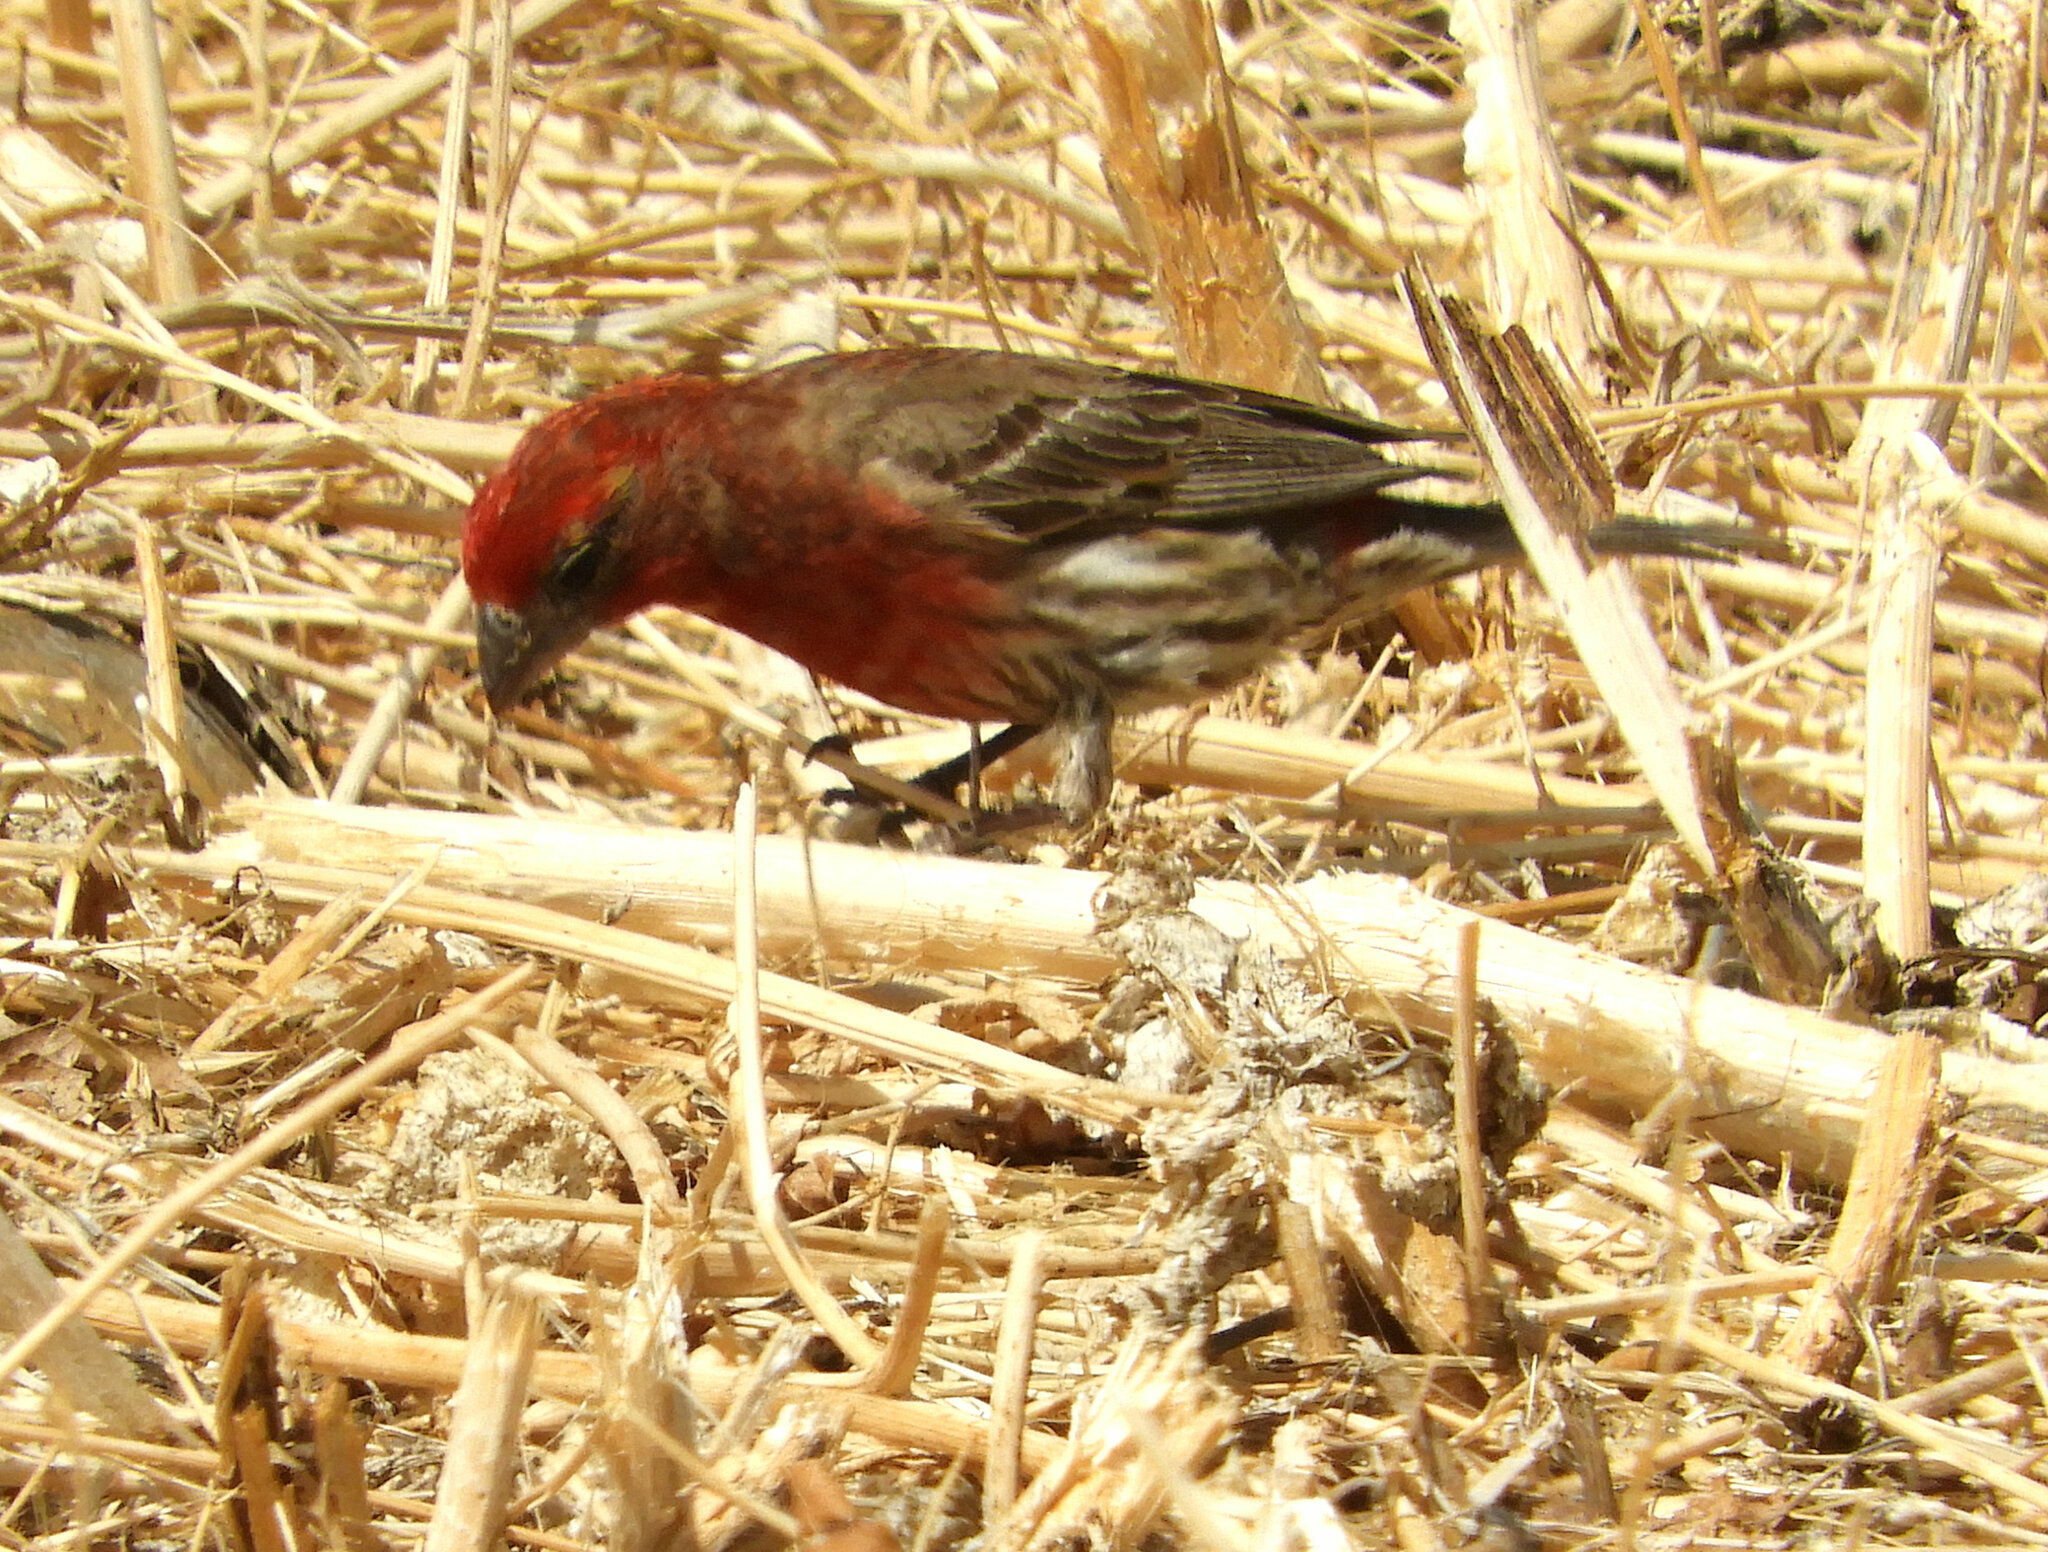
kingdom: Animalia
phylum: Chordata
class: Aves
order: Passeriformes
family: Fringillidae
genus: Haemorhous
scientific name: Haemorhous mexicanus
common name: House finch
